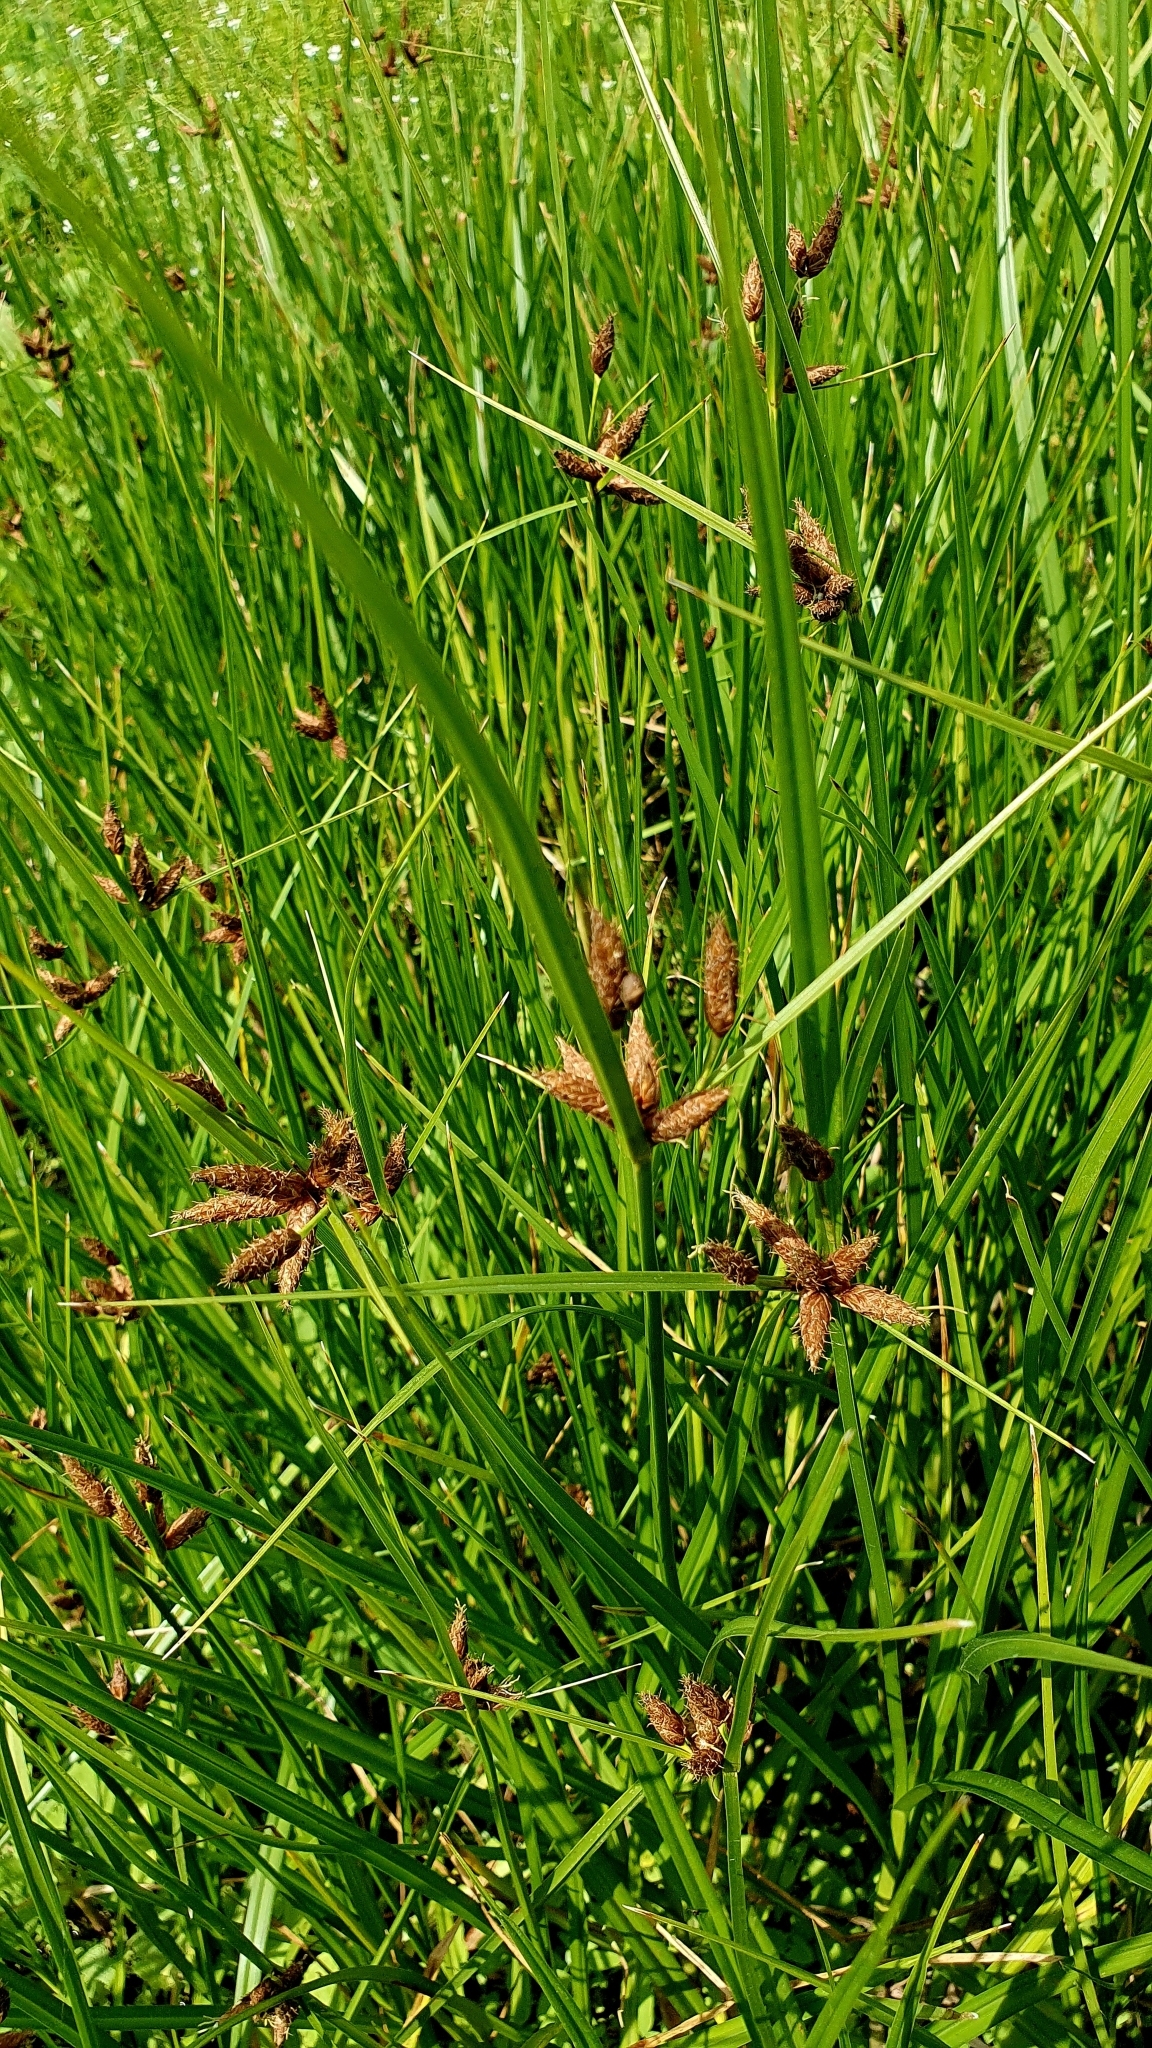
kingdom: Plantae
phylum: Tracheophyta
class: Liliopsida
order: Poales
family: Cyperaceae
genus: Bolboschoenus
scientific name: Bolboschoenus maritimus
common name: Sea club-rush
